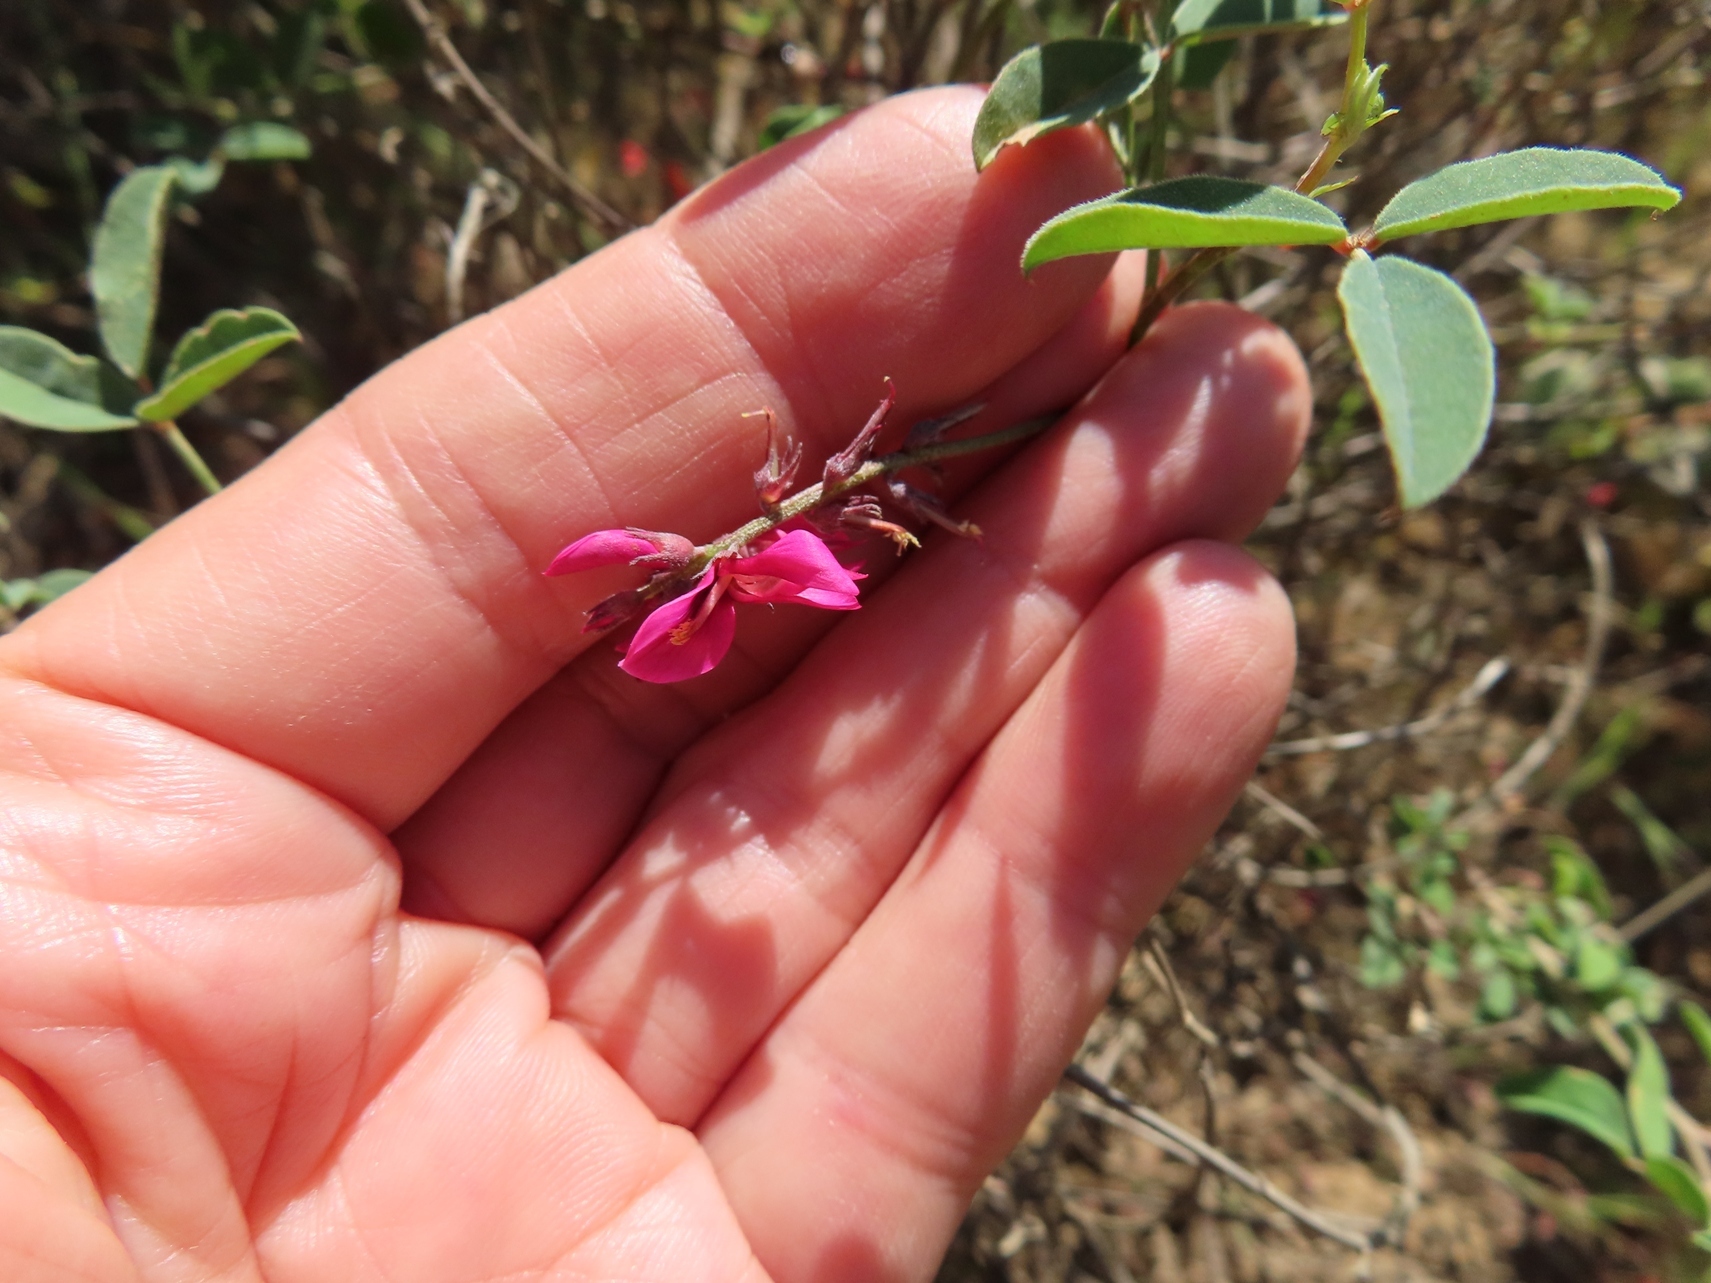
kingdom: Plantae
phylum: Tracheophyta
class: Magnoliopsida
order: Fabales
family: Fabaceae
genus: Indigofera
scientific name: Indigofera intermedia
